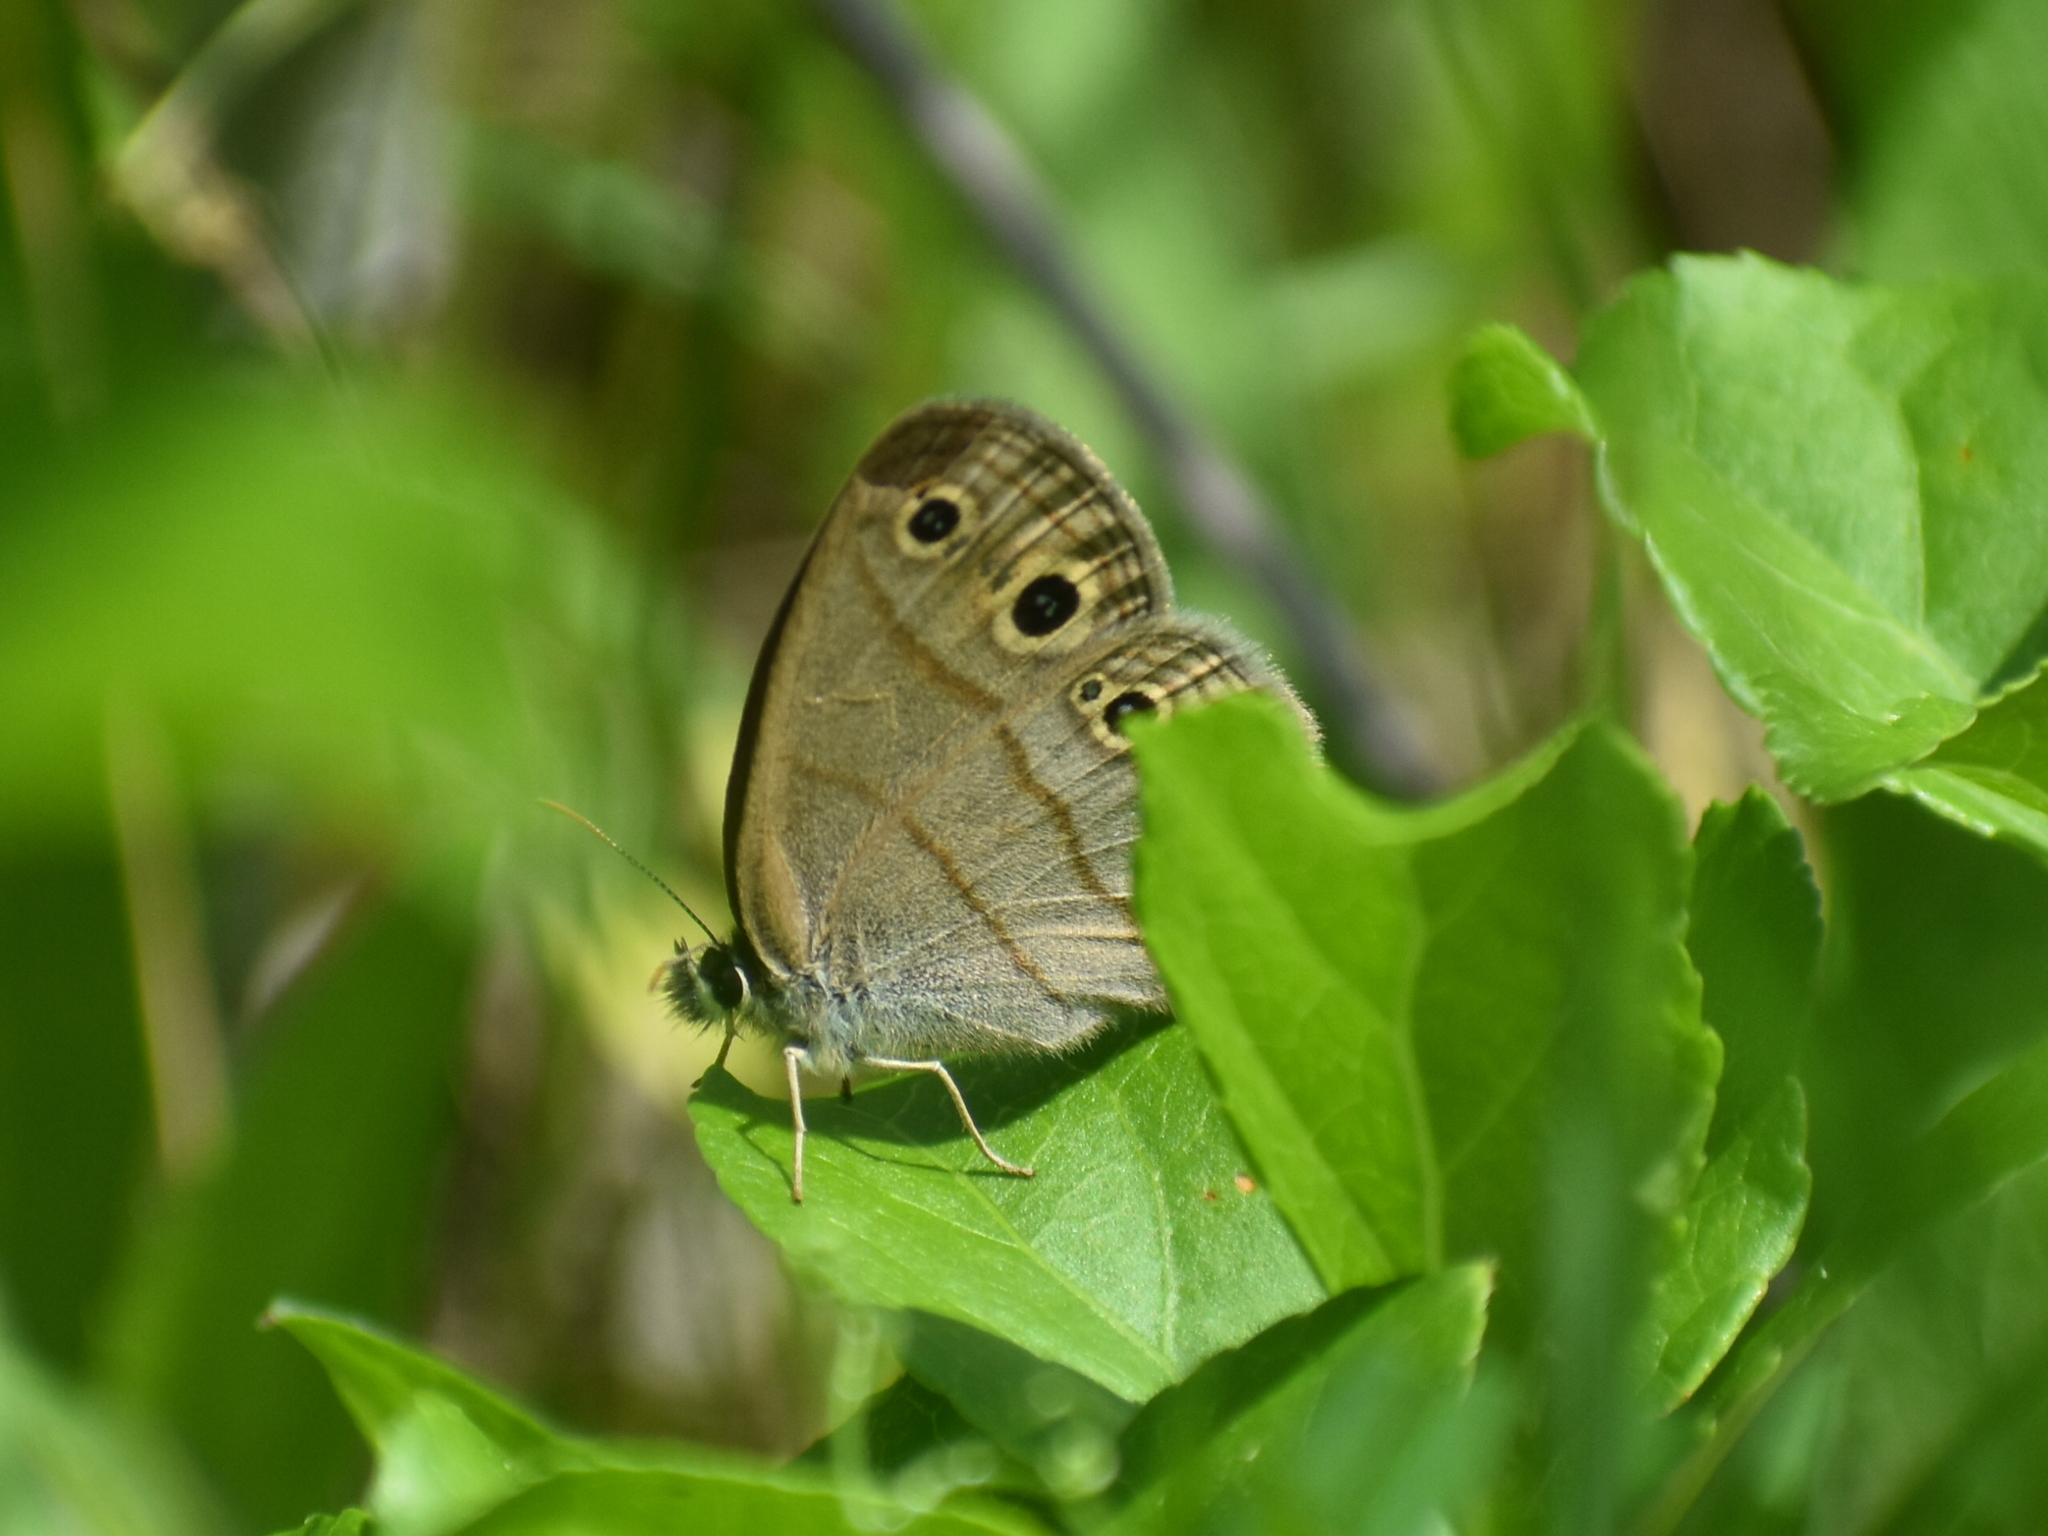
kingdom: Animalia
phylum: Arthropoda
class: Insecta
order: Lepidoptera
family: Nymphalidae
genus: Euptychia
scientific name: Euptychia cymela
